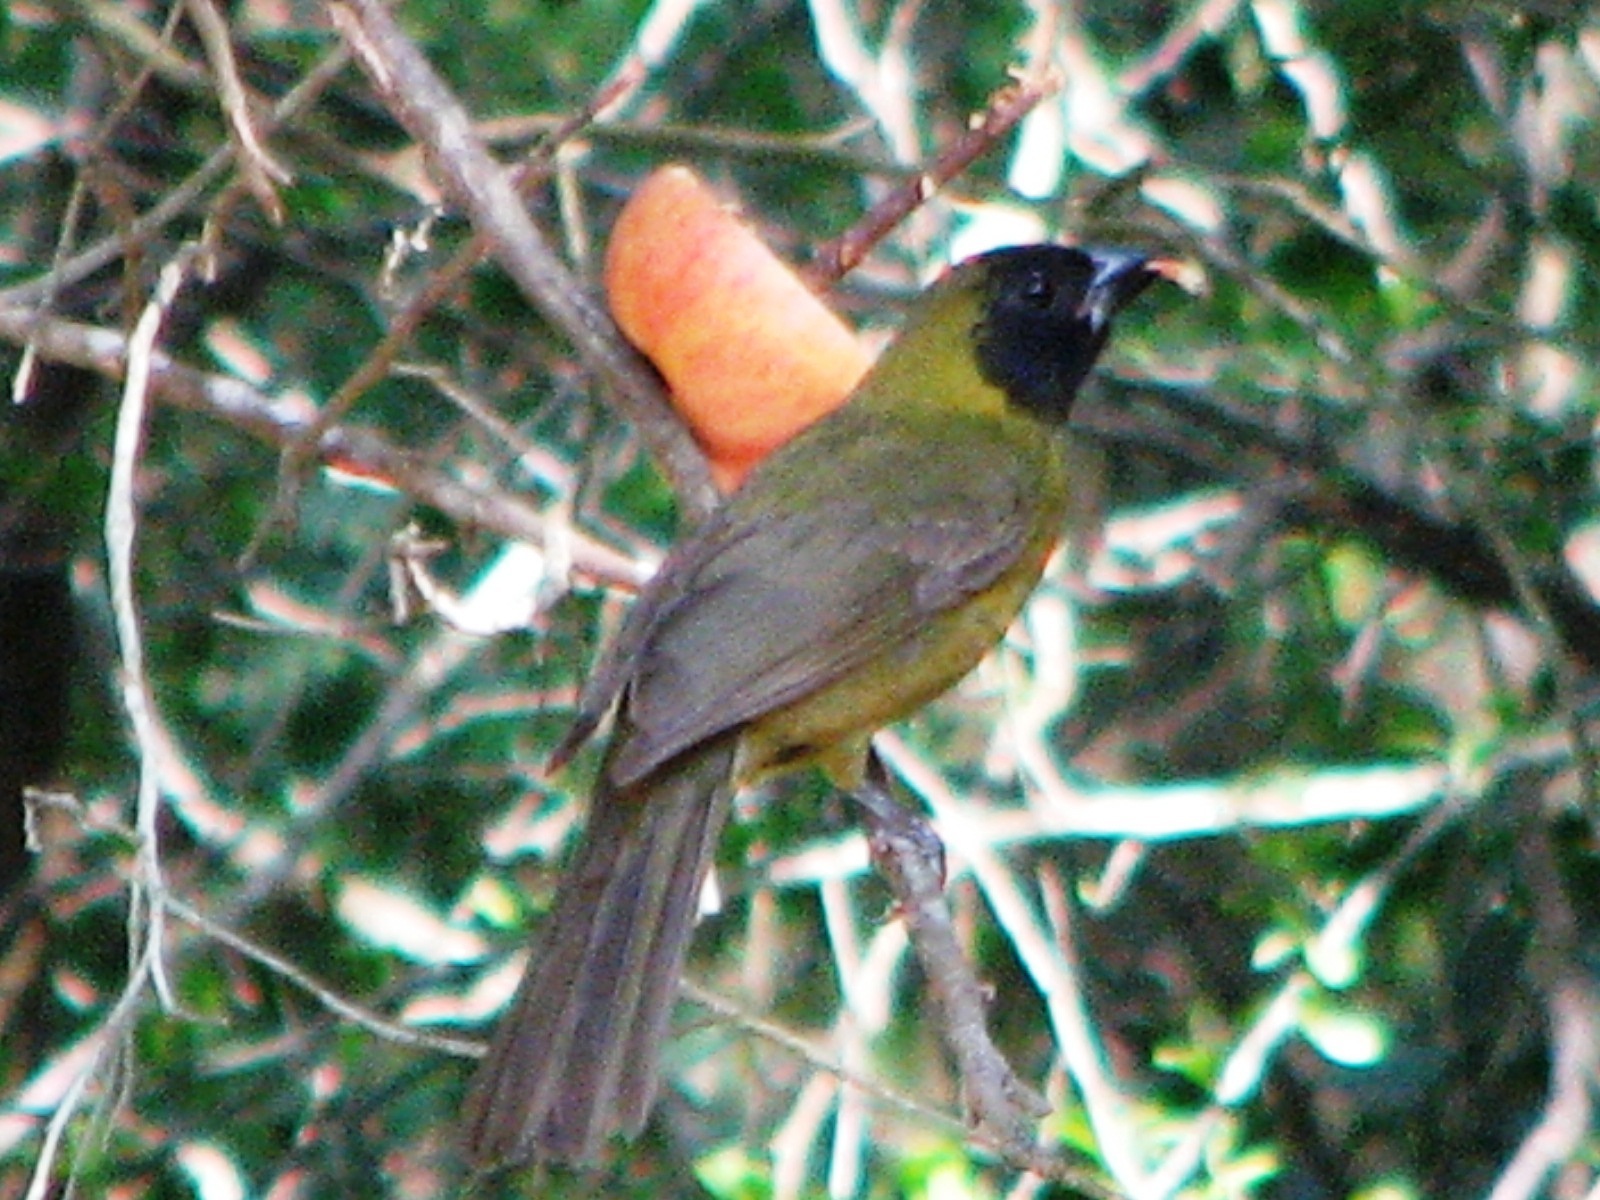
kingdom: Animalia
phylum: Chordata
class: Aves
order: Passeriformes
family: Cardinalidae
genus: Rhodothraupis
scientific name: Rhodothraupis celaeno
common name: Crimson-collared grosbeak
